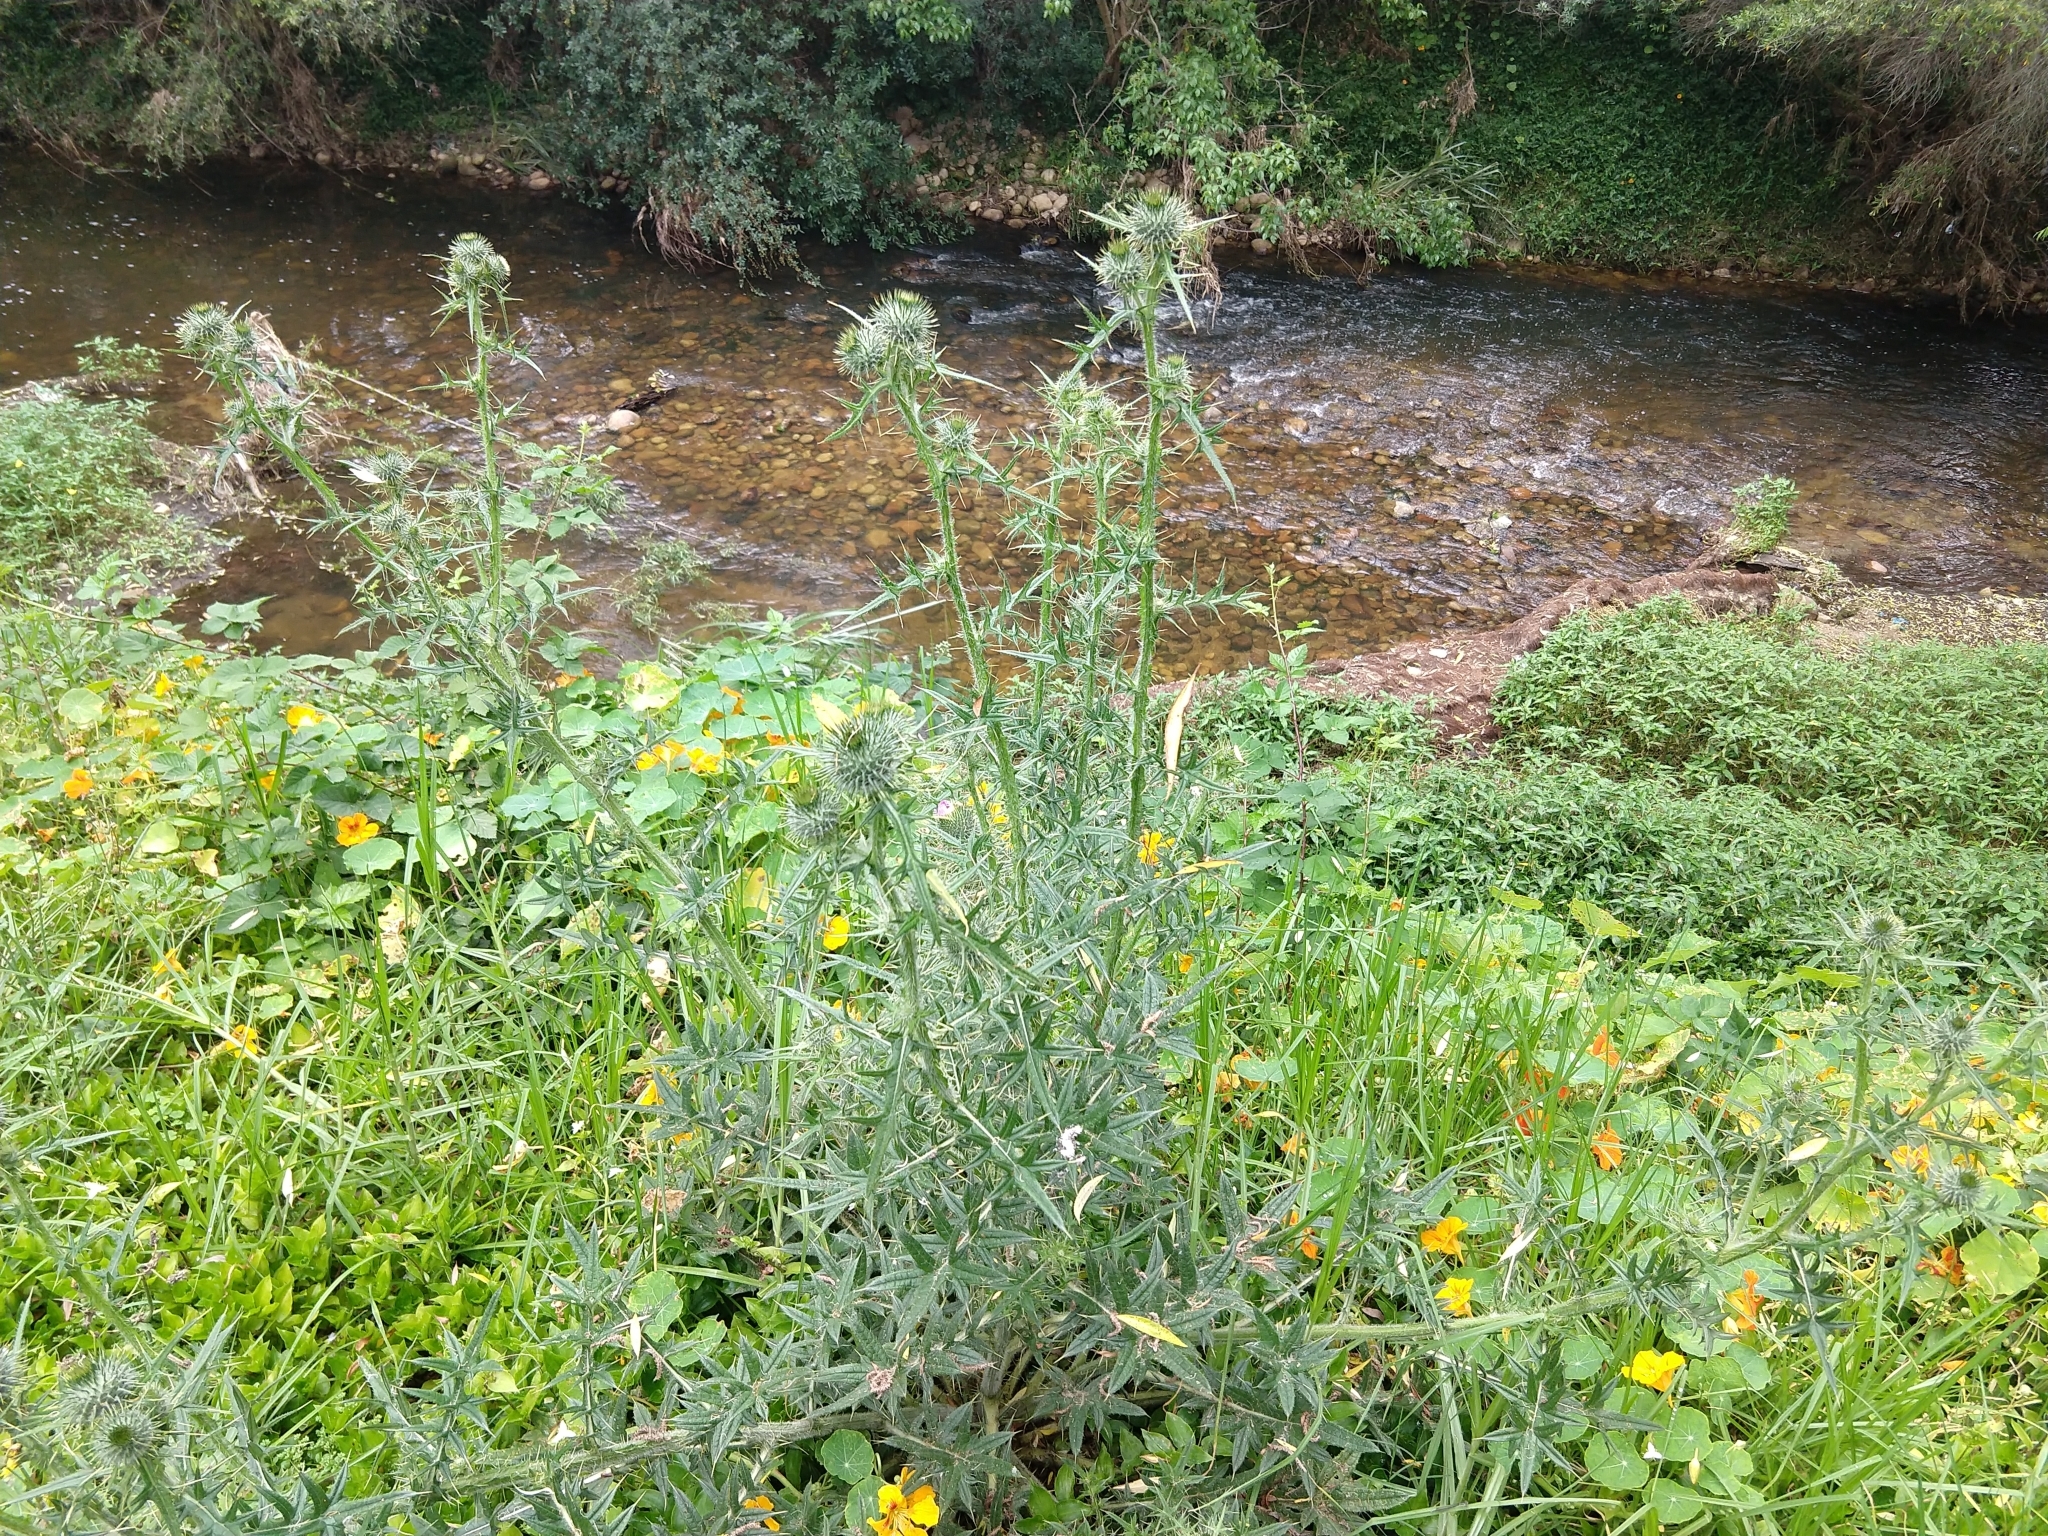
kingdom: Plantae
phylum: Tracheophyta
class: Magnoliopsida
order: Asterales
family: Asteraceae
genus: Cirsium
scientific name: Cirsium vulgare
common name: Bull thistle
